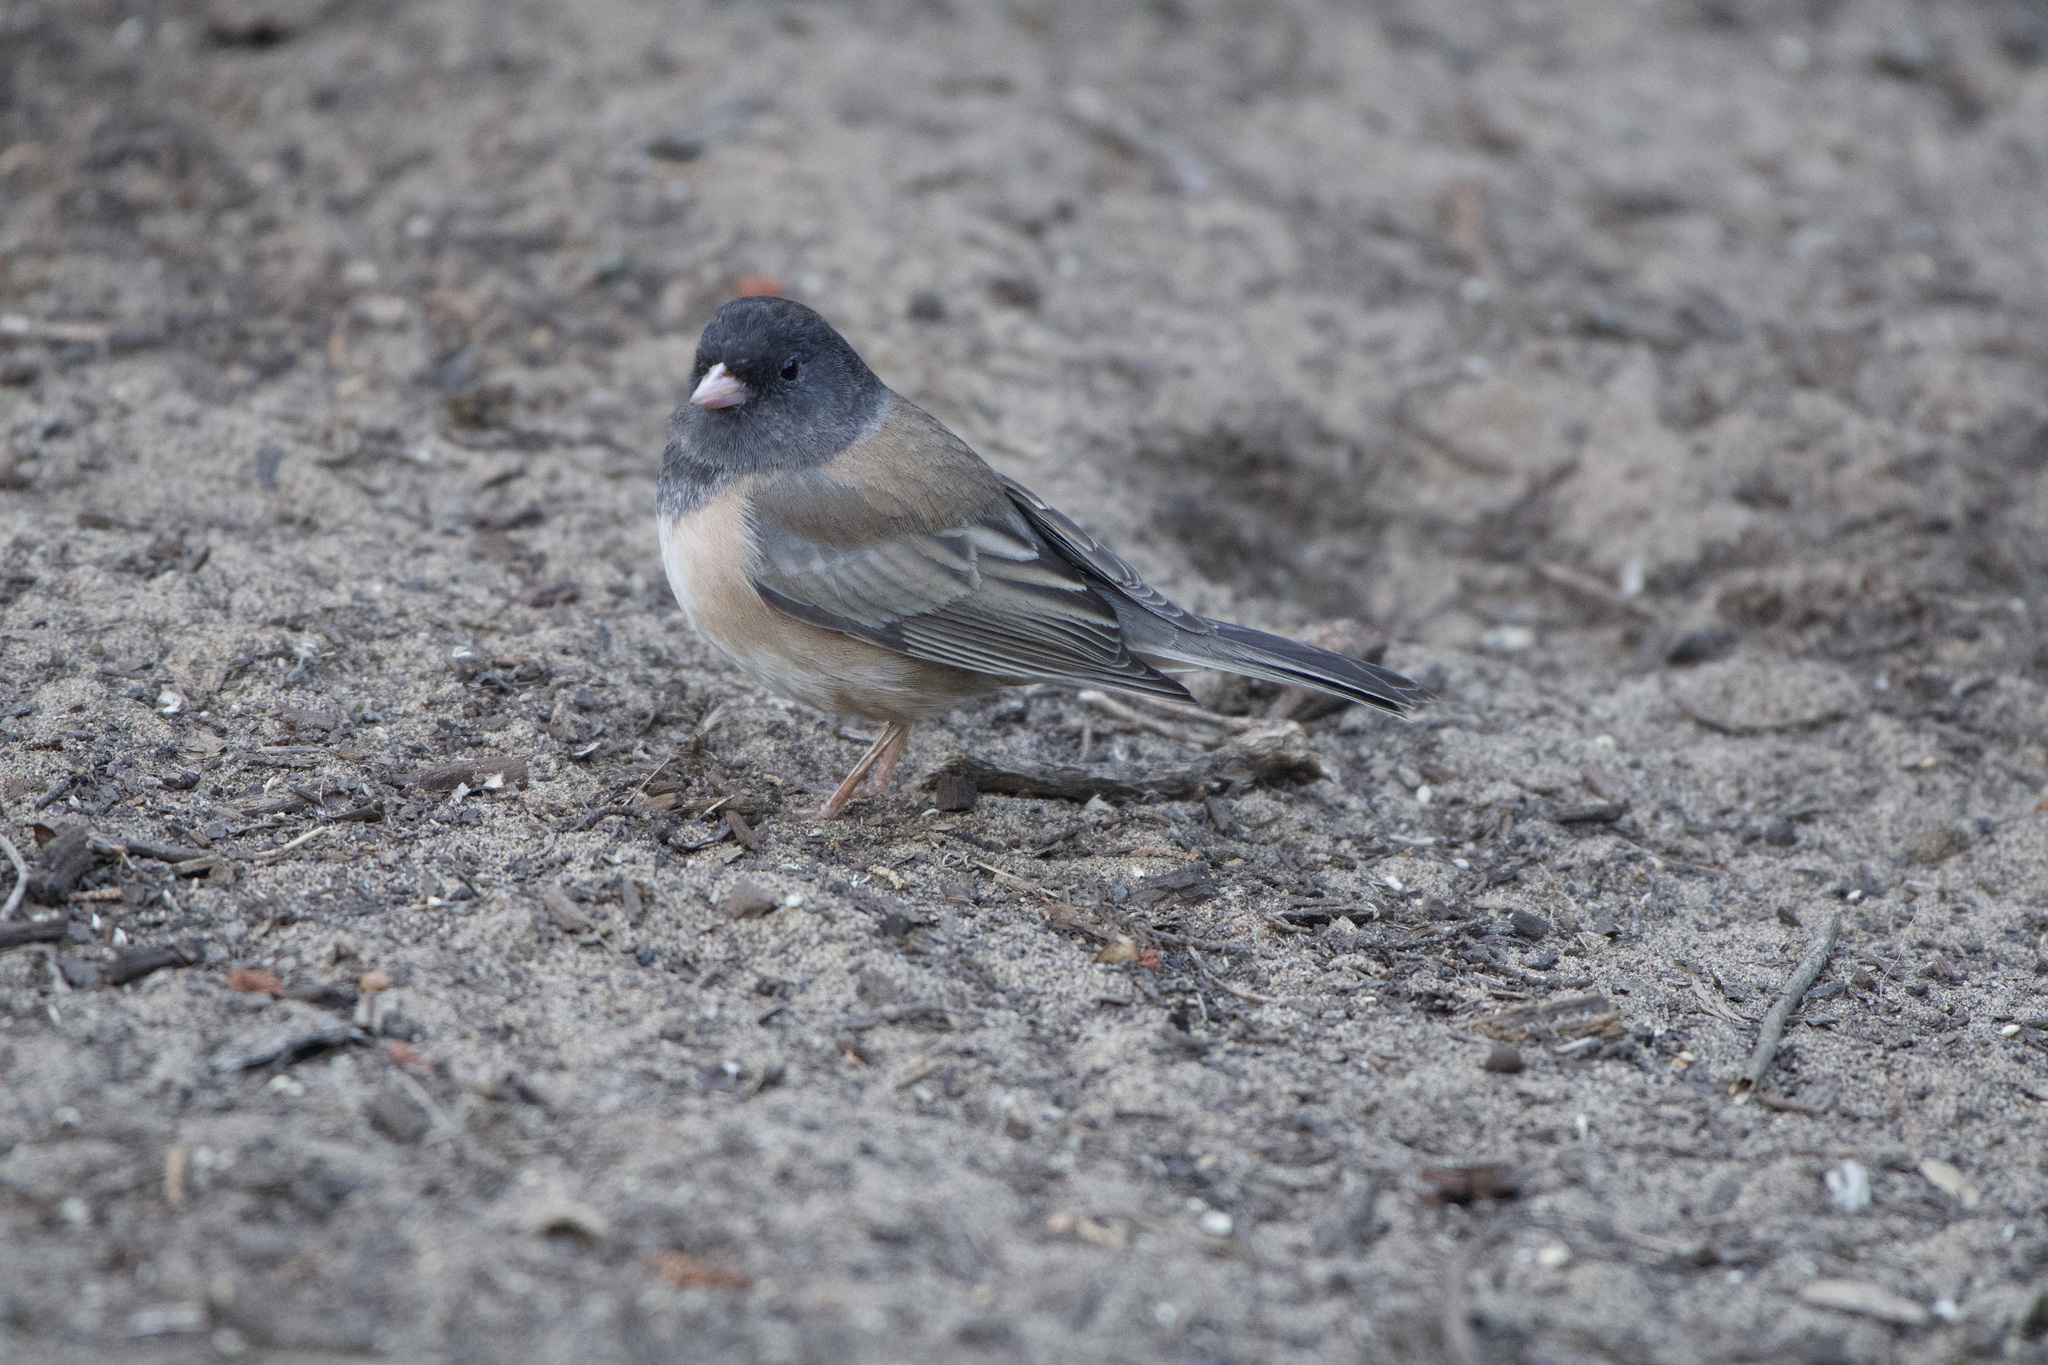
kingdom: Animalia
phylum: Chordata
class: Aves
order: Passeriformes
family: Passerellidae
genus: Junco
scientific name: Junco hyemalis
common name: Dark-eyed junco
